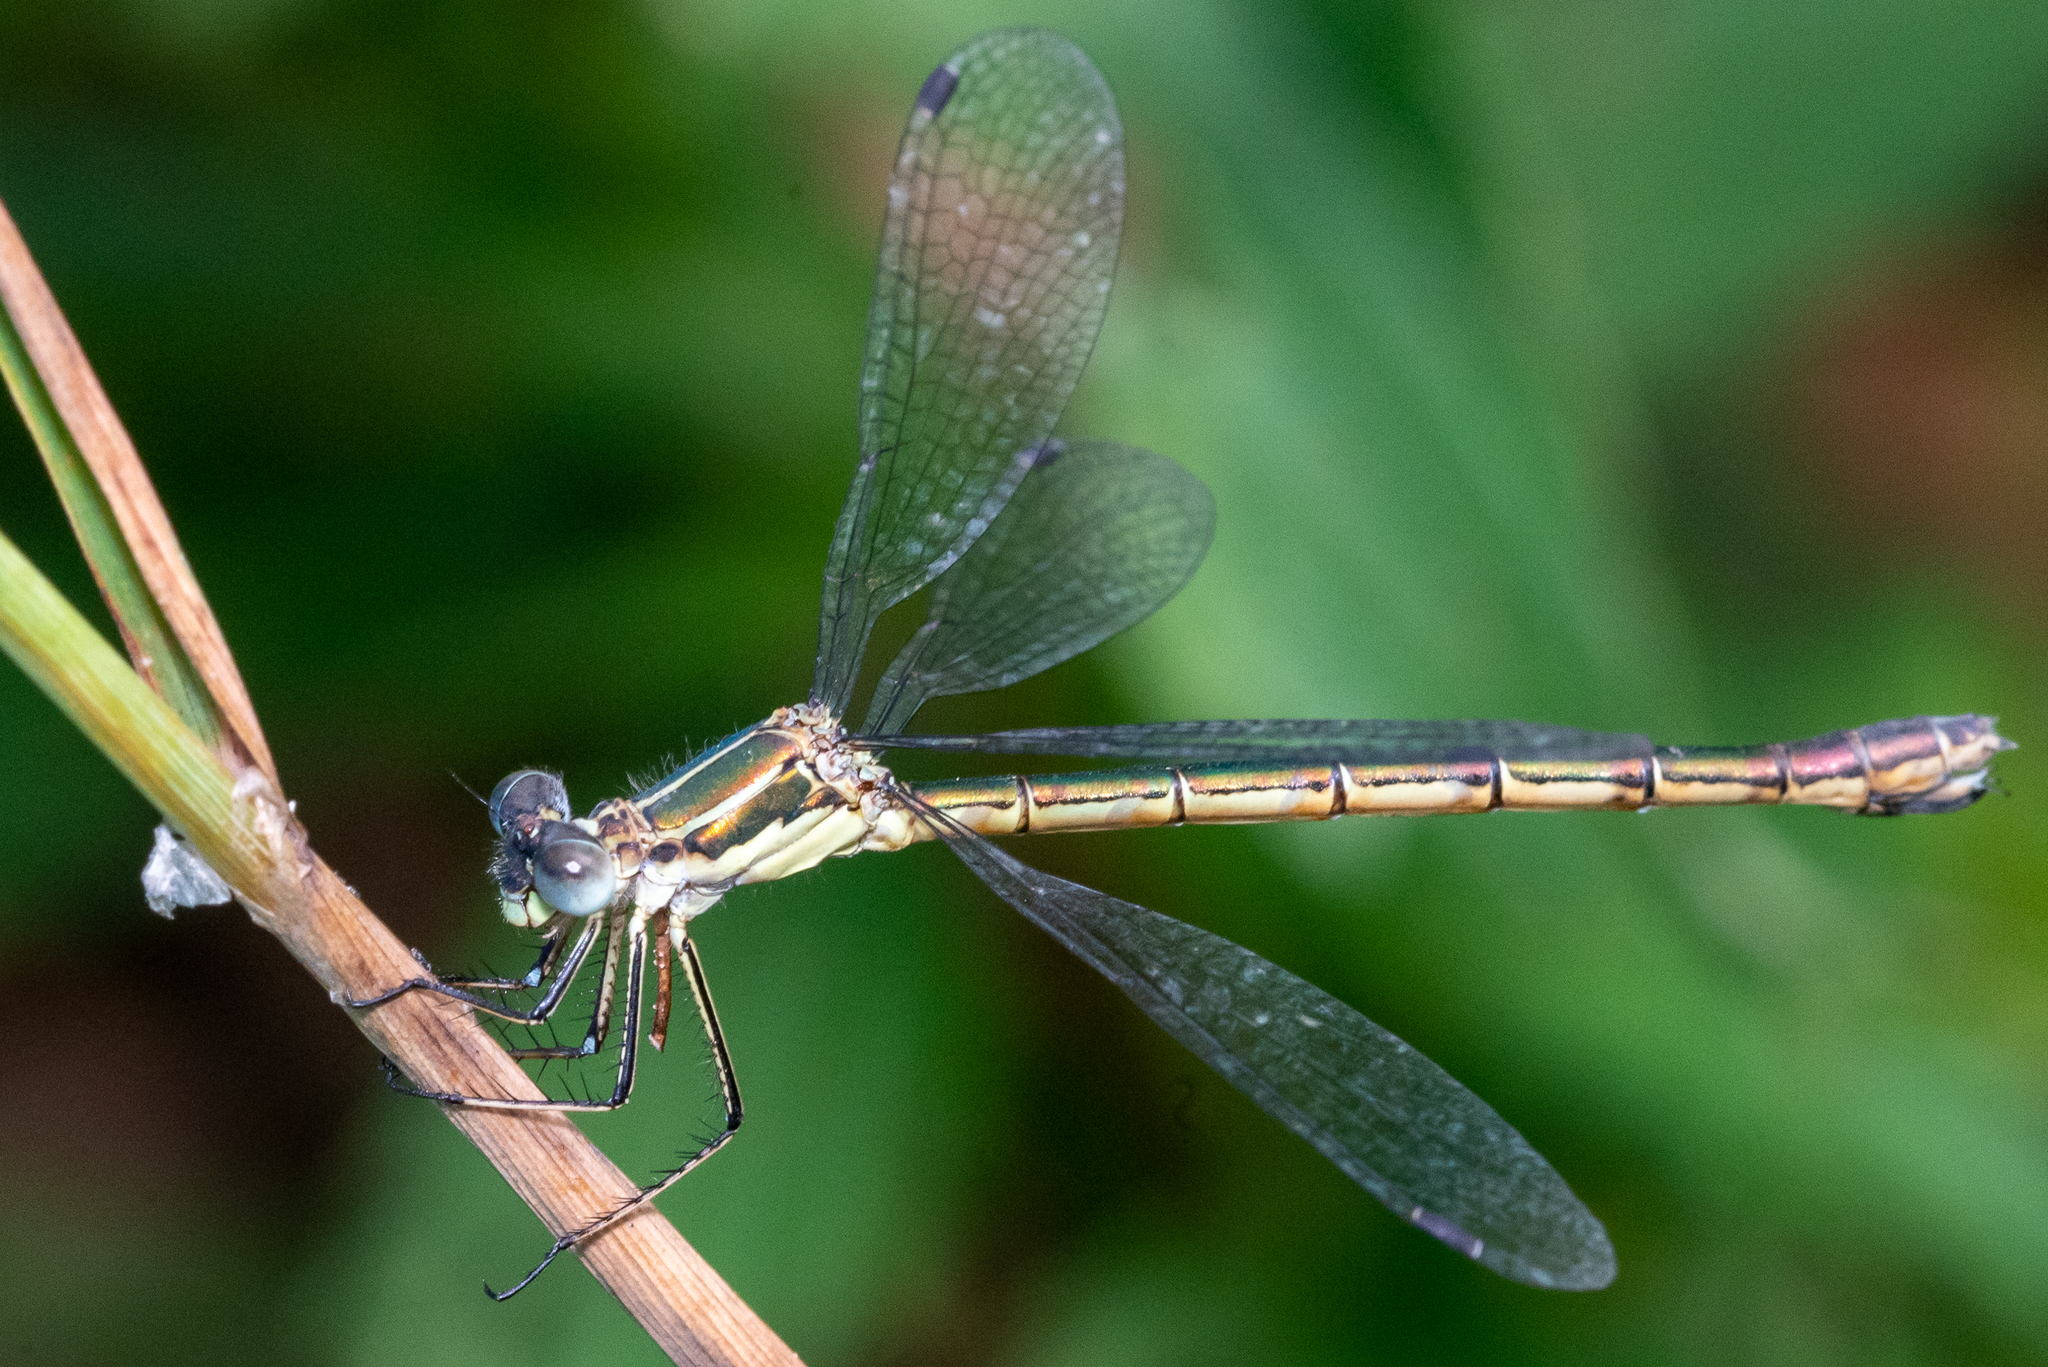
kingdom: Animalia
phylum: Arthropoda
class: Insecta
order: Odonata
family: Lestidae
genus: Lestes
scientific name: Lestes dryas
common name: Scarce emerald damselfly
